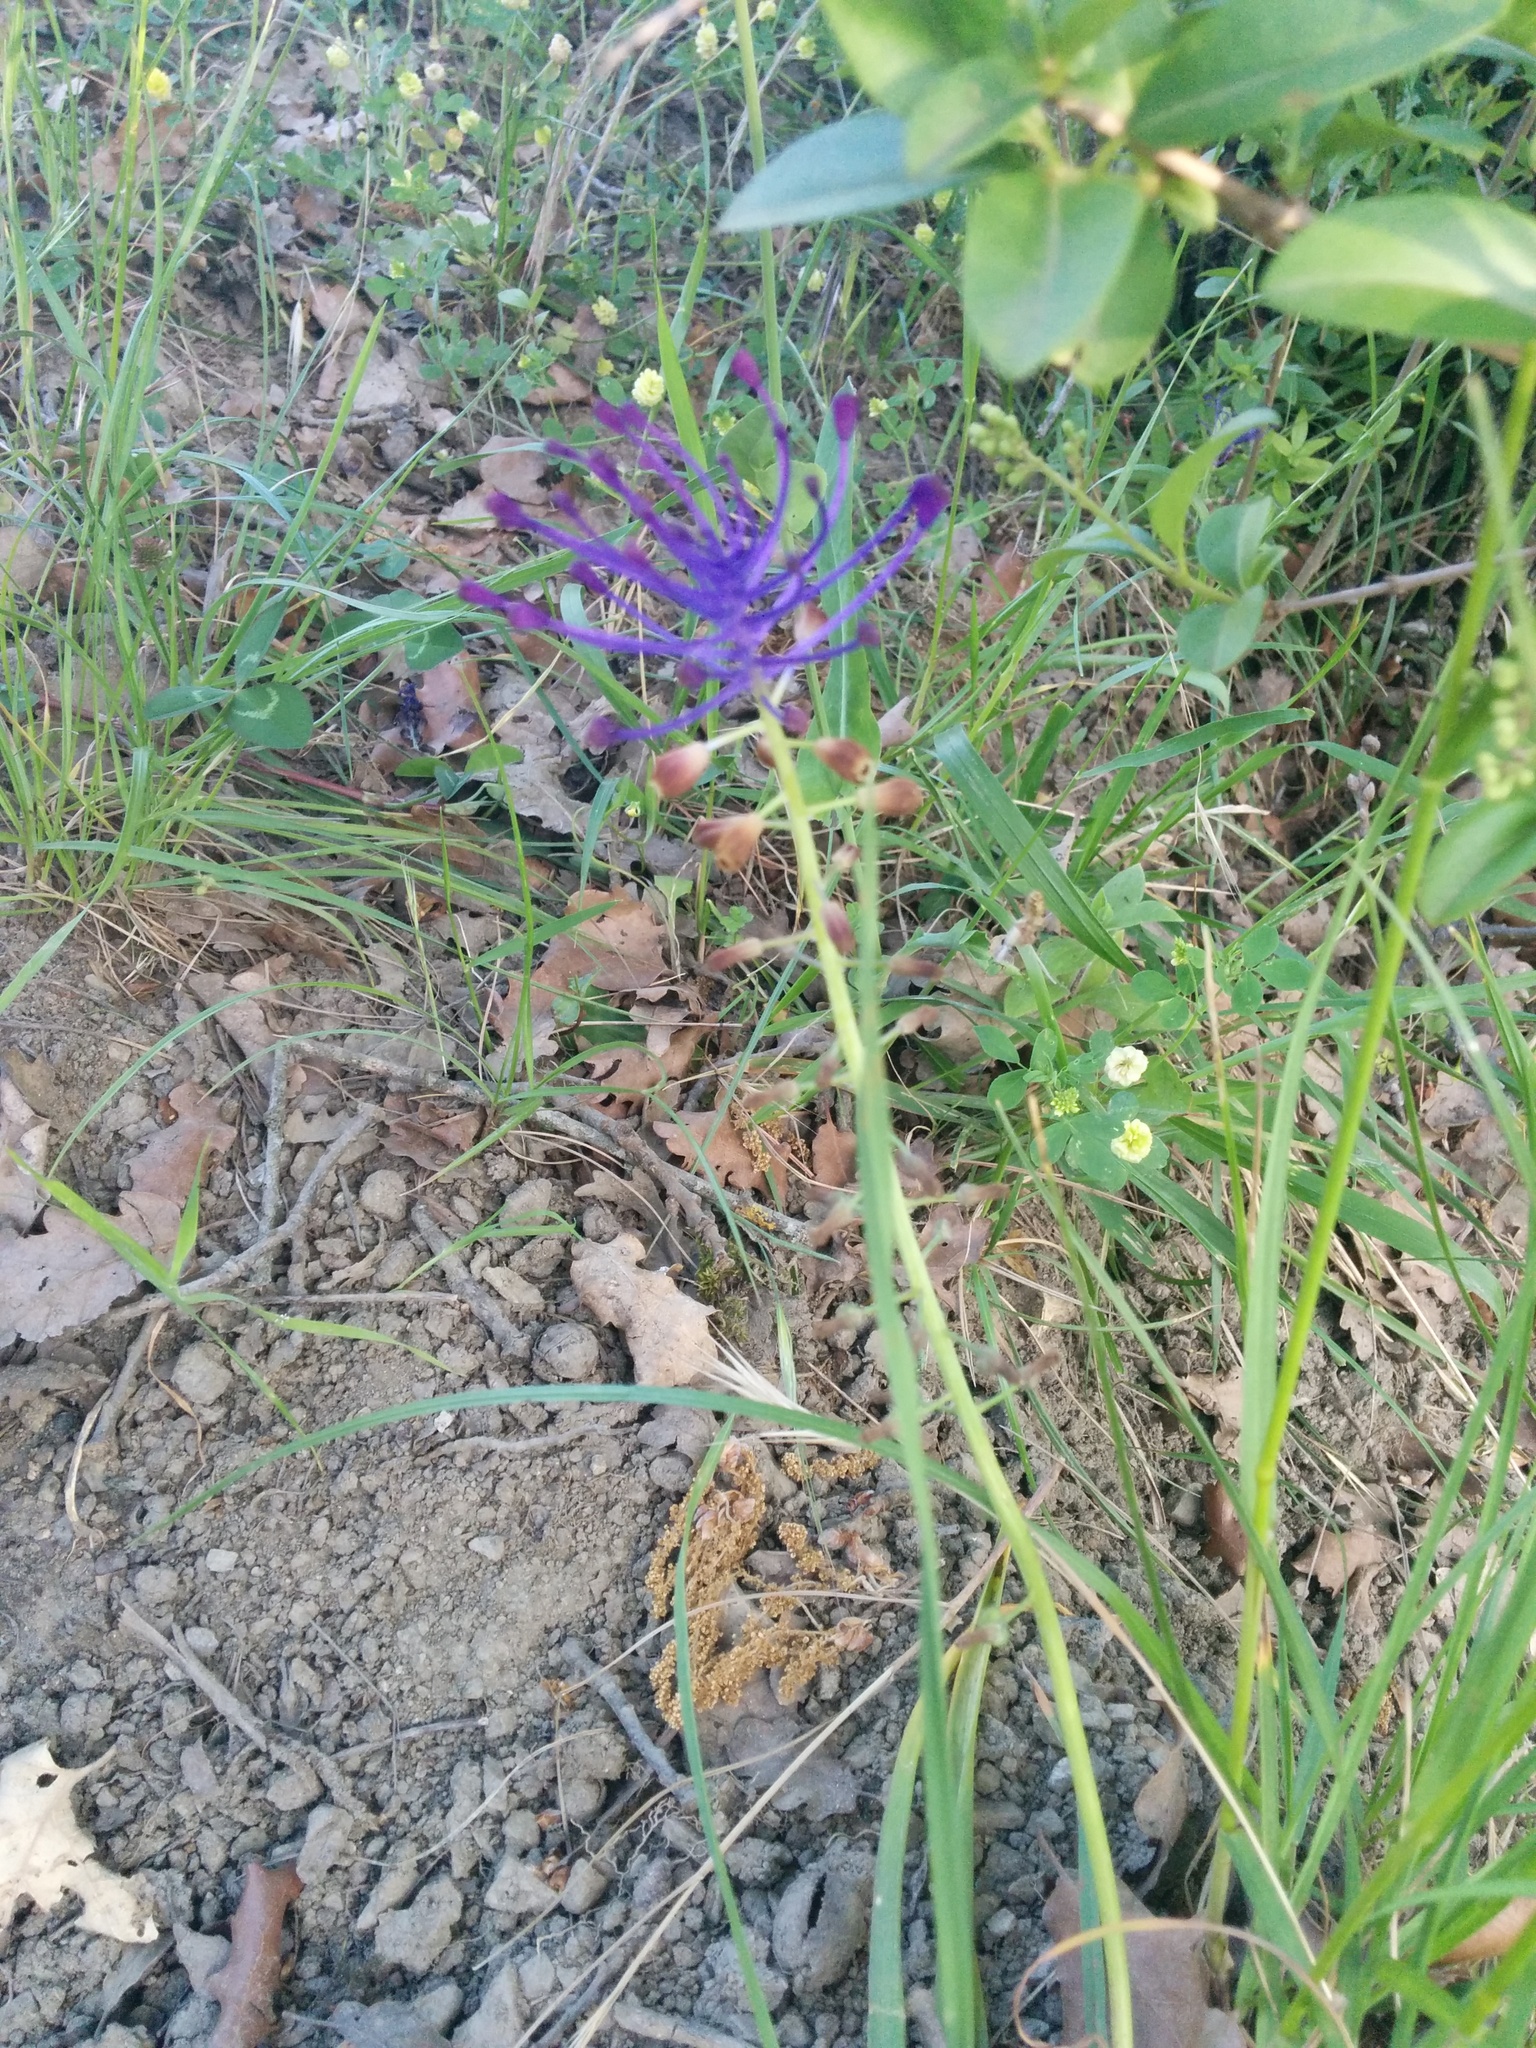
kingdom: Plantae
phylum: Tracheophyta
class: Liliopsida
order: Asparagales
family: Asparagaceae
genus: Muscari
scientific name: Muscari comosum
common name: Tassel hyacinth
